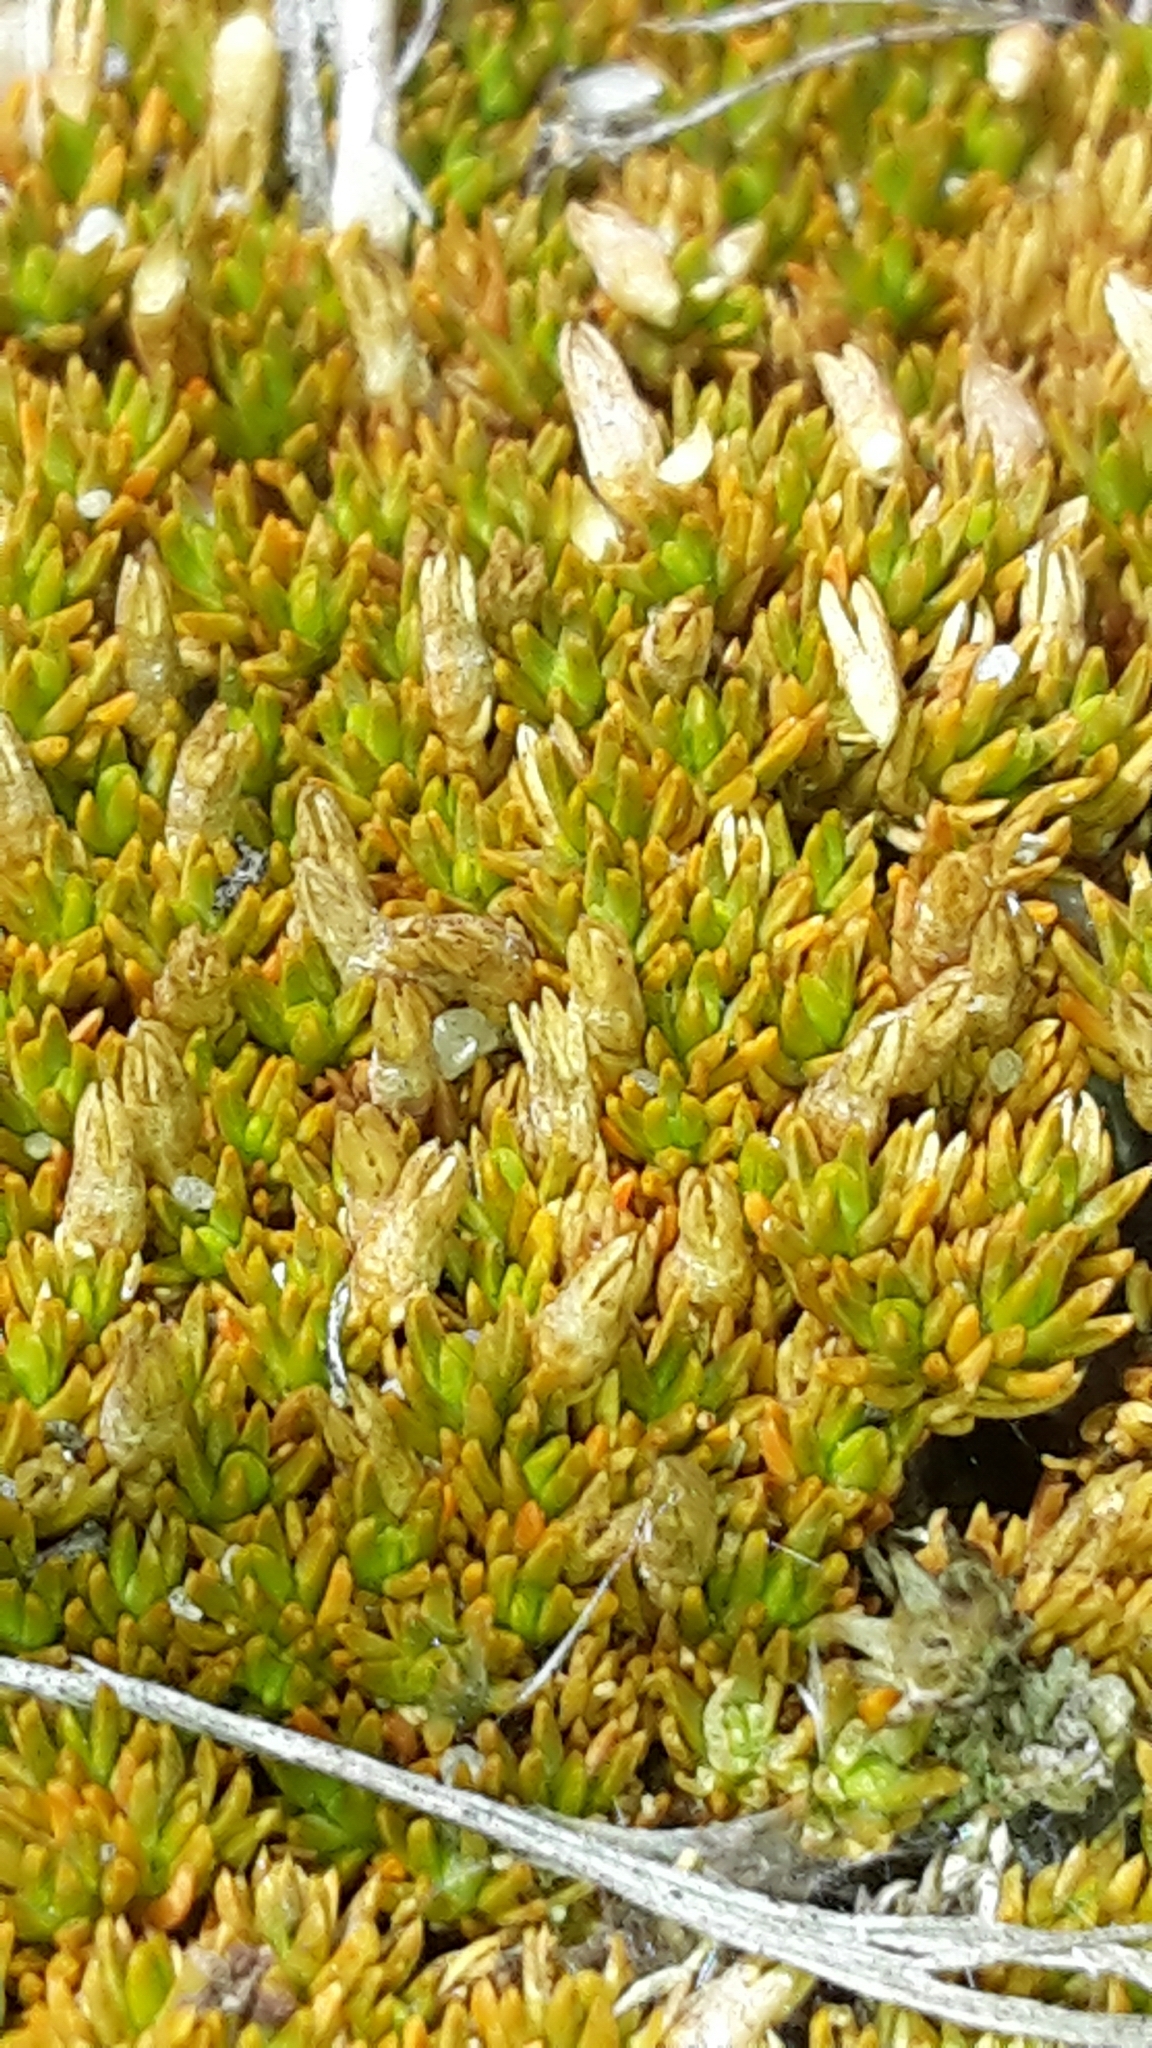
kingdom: Plantae
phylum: Tracheophyta
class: Magnoliopsida
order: Caryophyllales
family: Caryophyllaceae
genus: Scleranthus
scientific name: Scleranthus uniflorus
